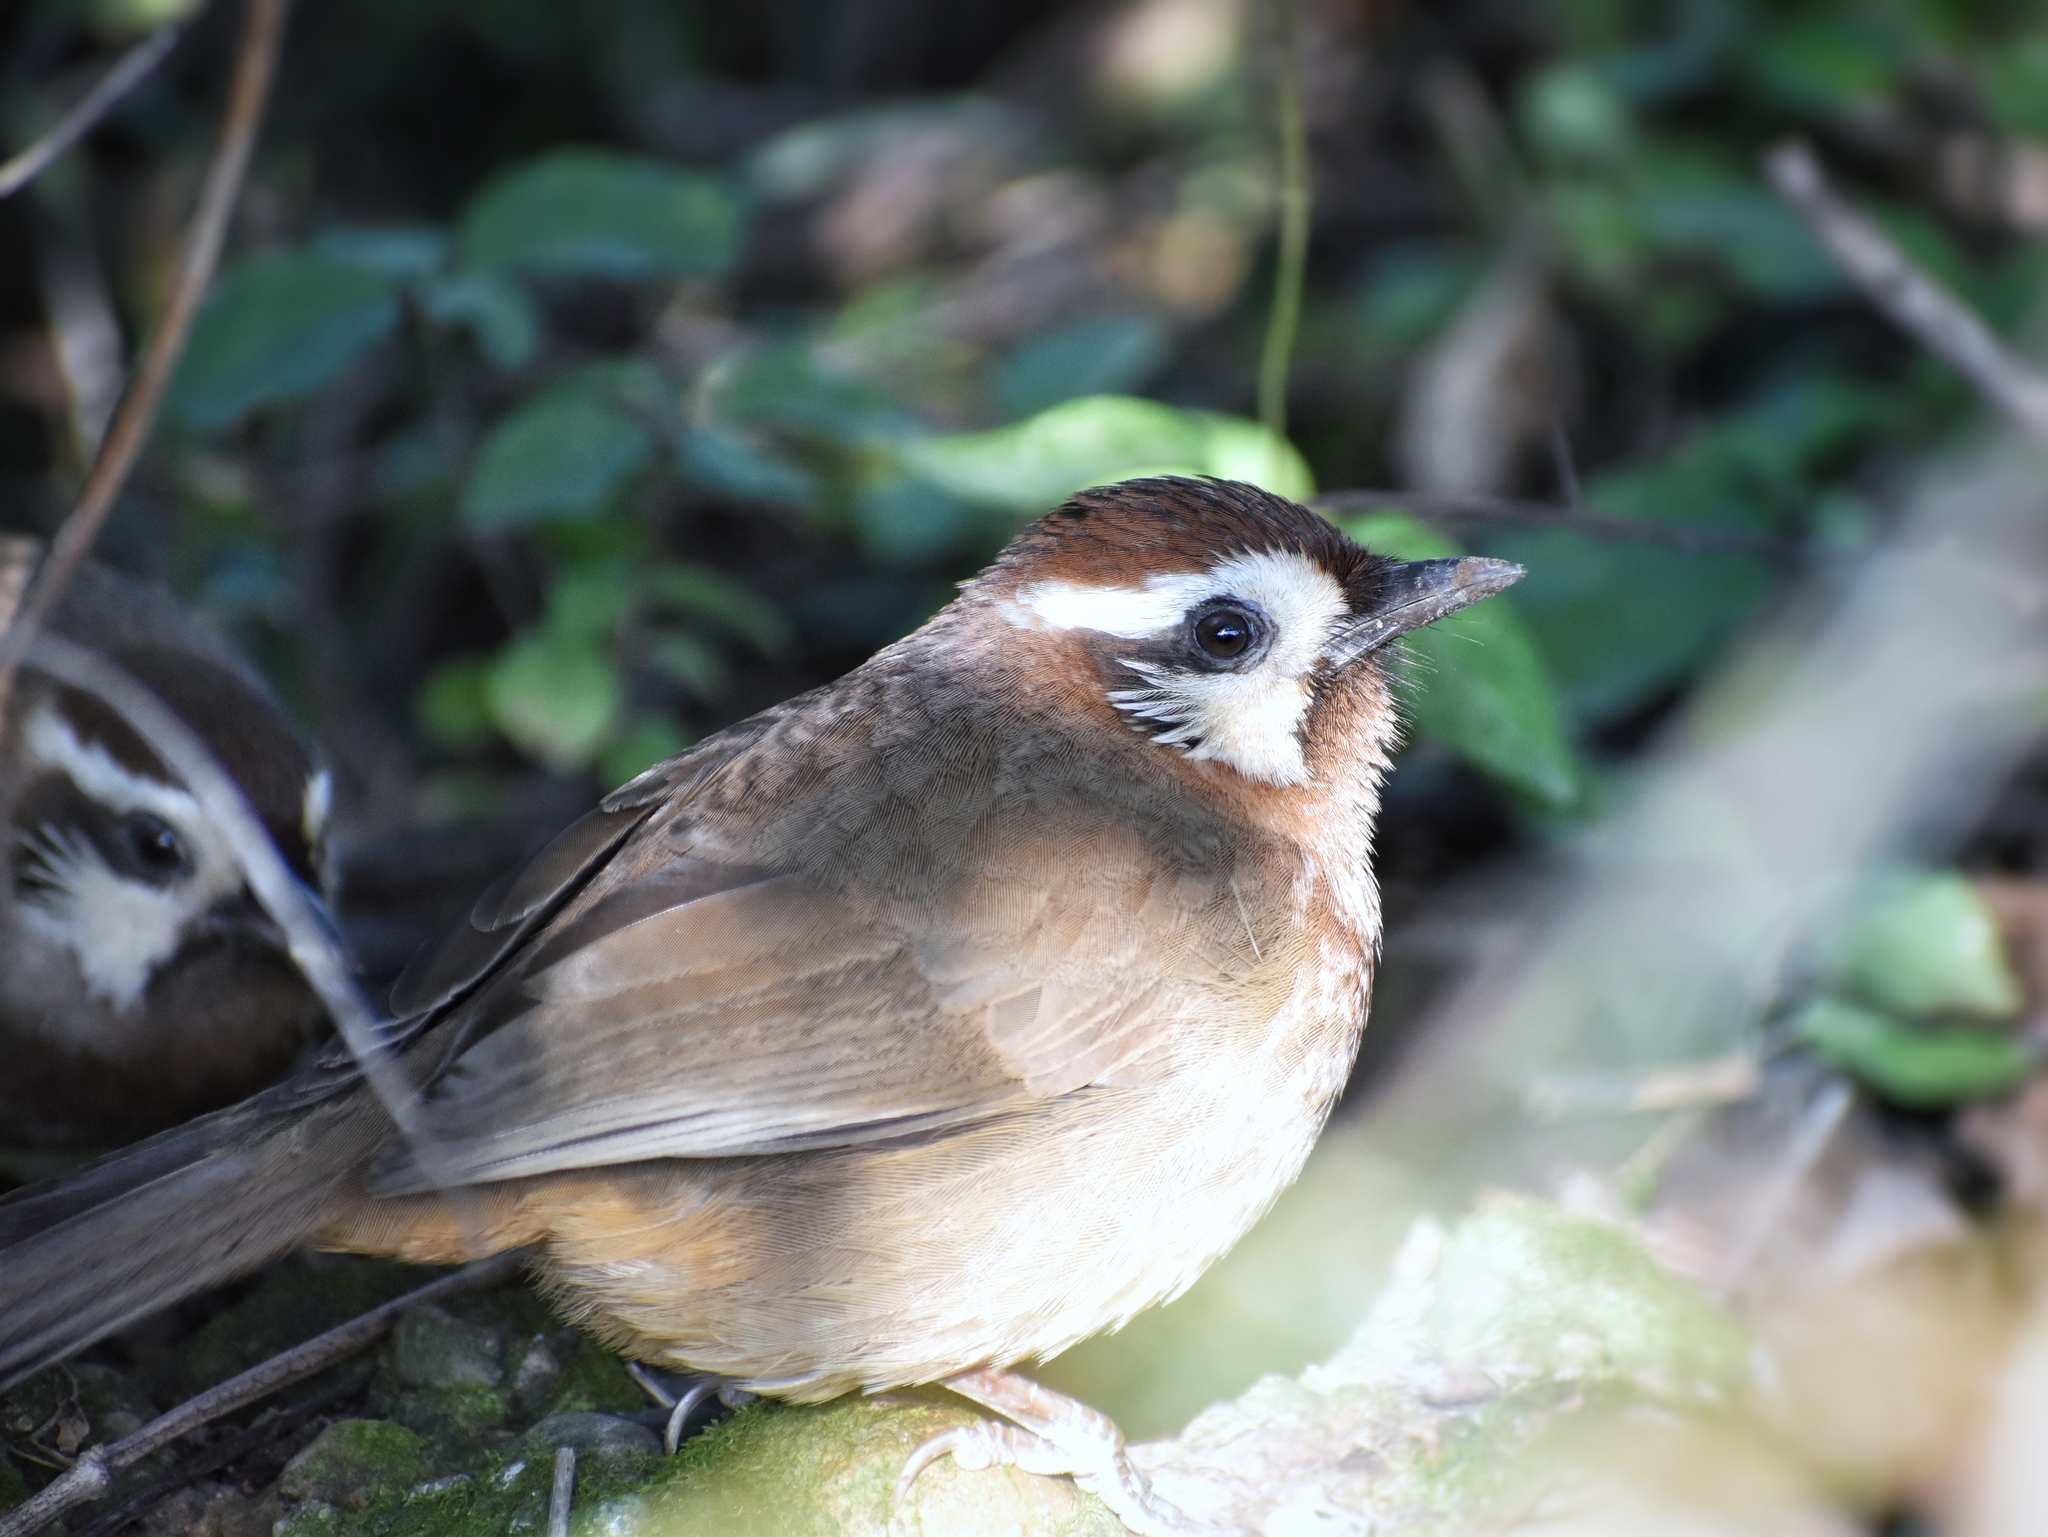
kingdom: Animalia
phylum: Chordata
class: Aves
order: Passeriformes
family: Leiothrichidae
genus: Pterorhinus
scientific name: Pterorhinus sannio
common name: White-browed laughingthrush
